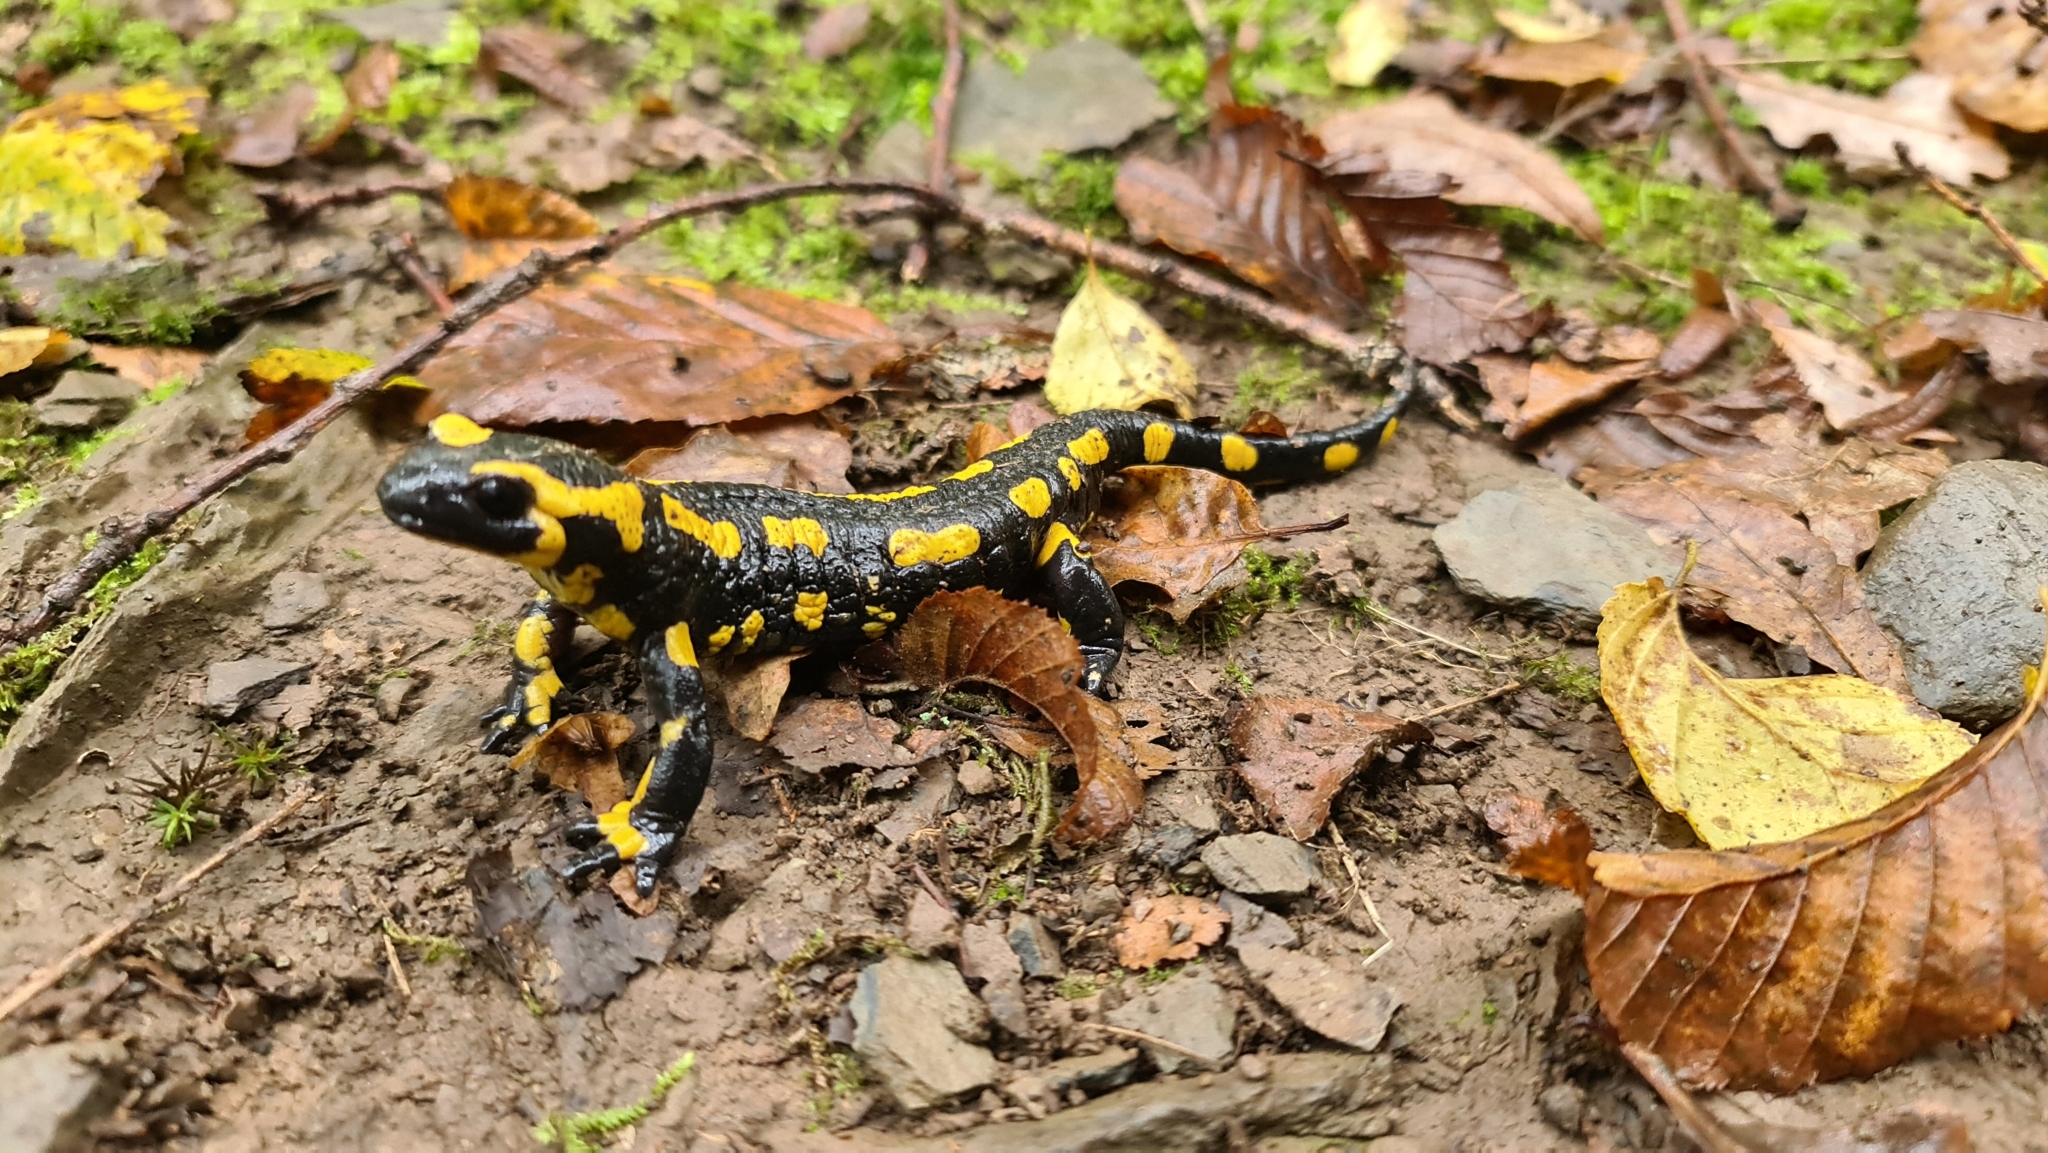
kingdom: Animalia
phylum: Chordata
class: Amphibia
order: Caudata
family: Salamandridae
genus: Salamandra
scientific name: Salamandra salamandra
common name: Fire salamander
